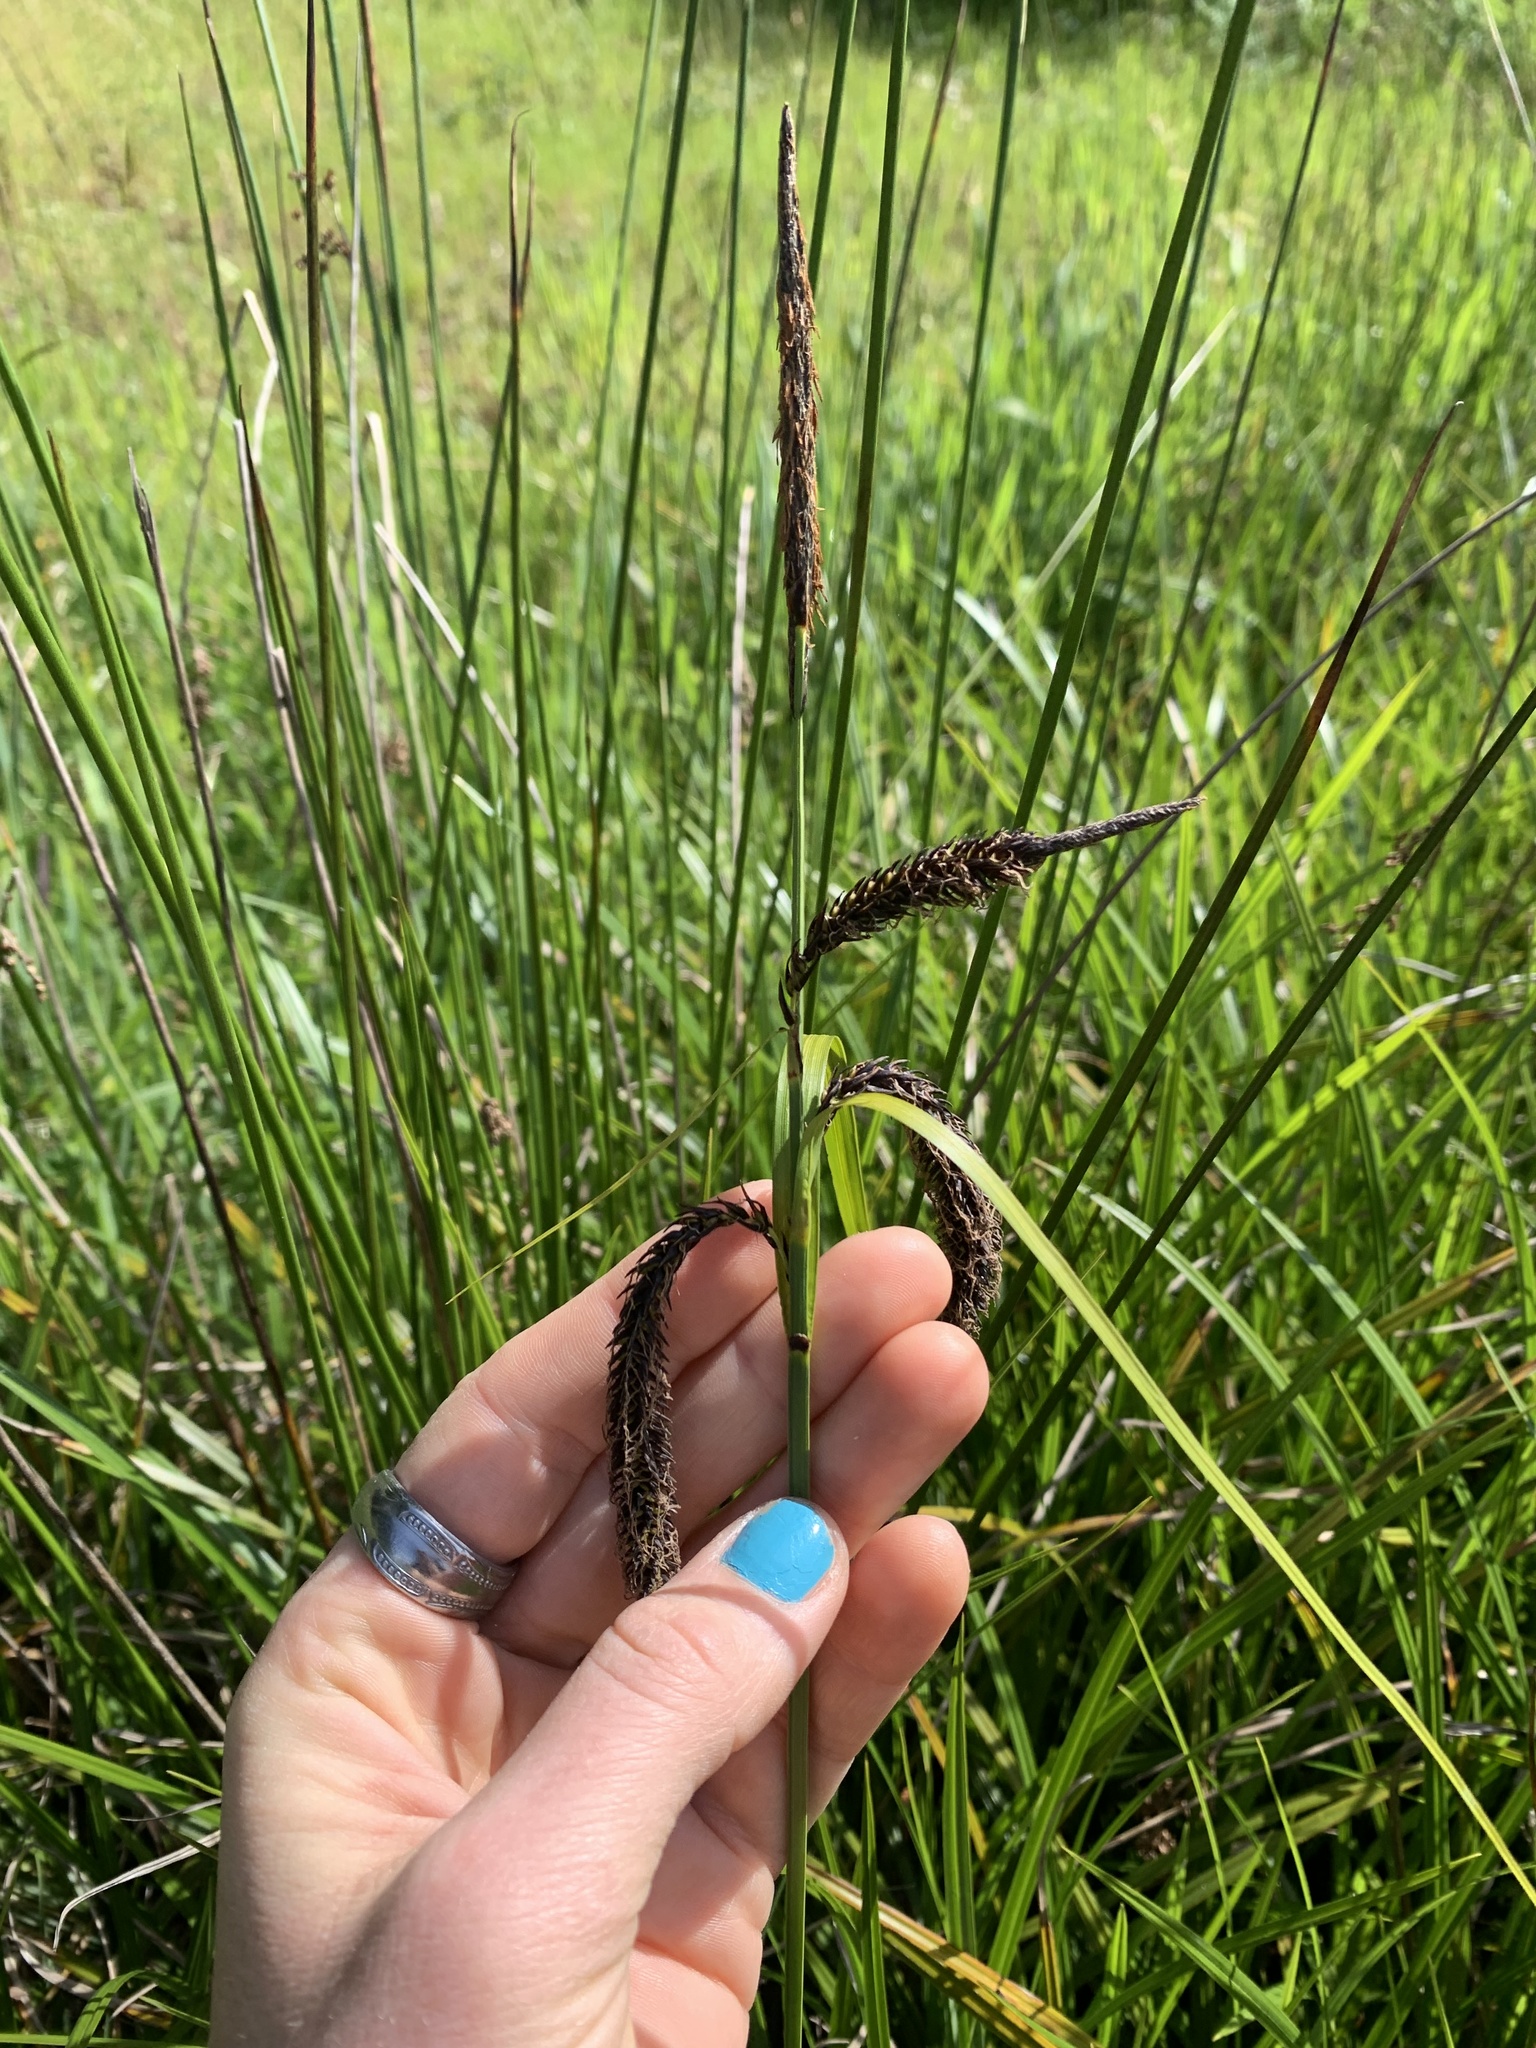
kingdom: Plantae
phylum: Tracheophyta
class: Liliopsida
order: Poales
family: Cyperaceae
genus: Carex
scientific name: Carex obnupta
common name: Slough sedge
